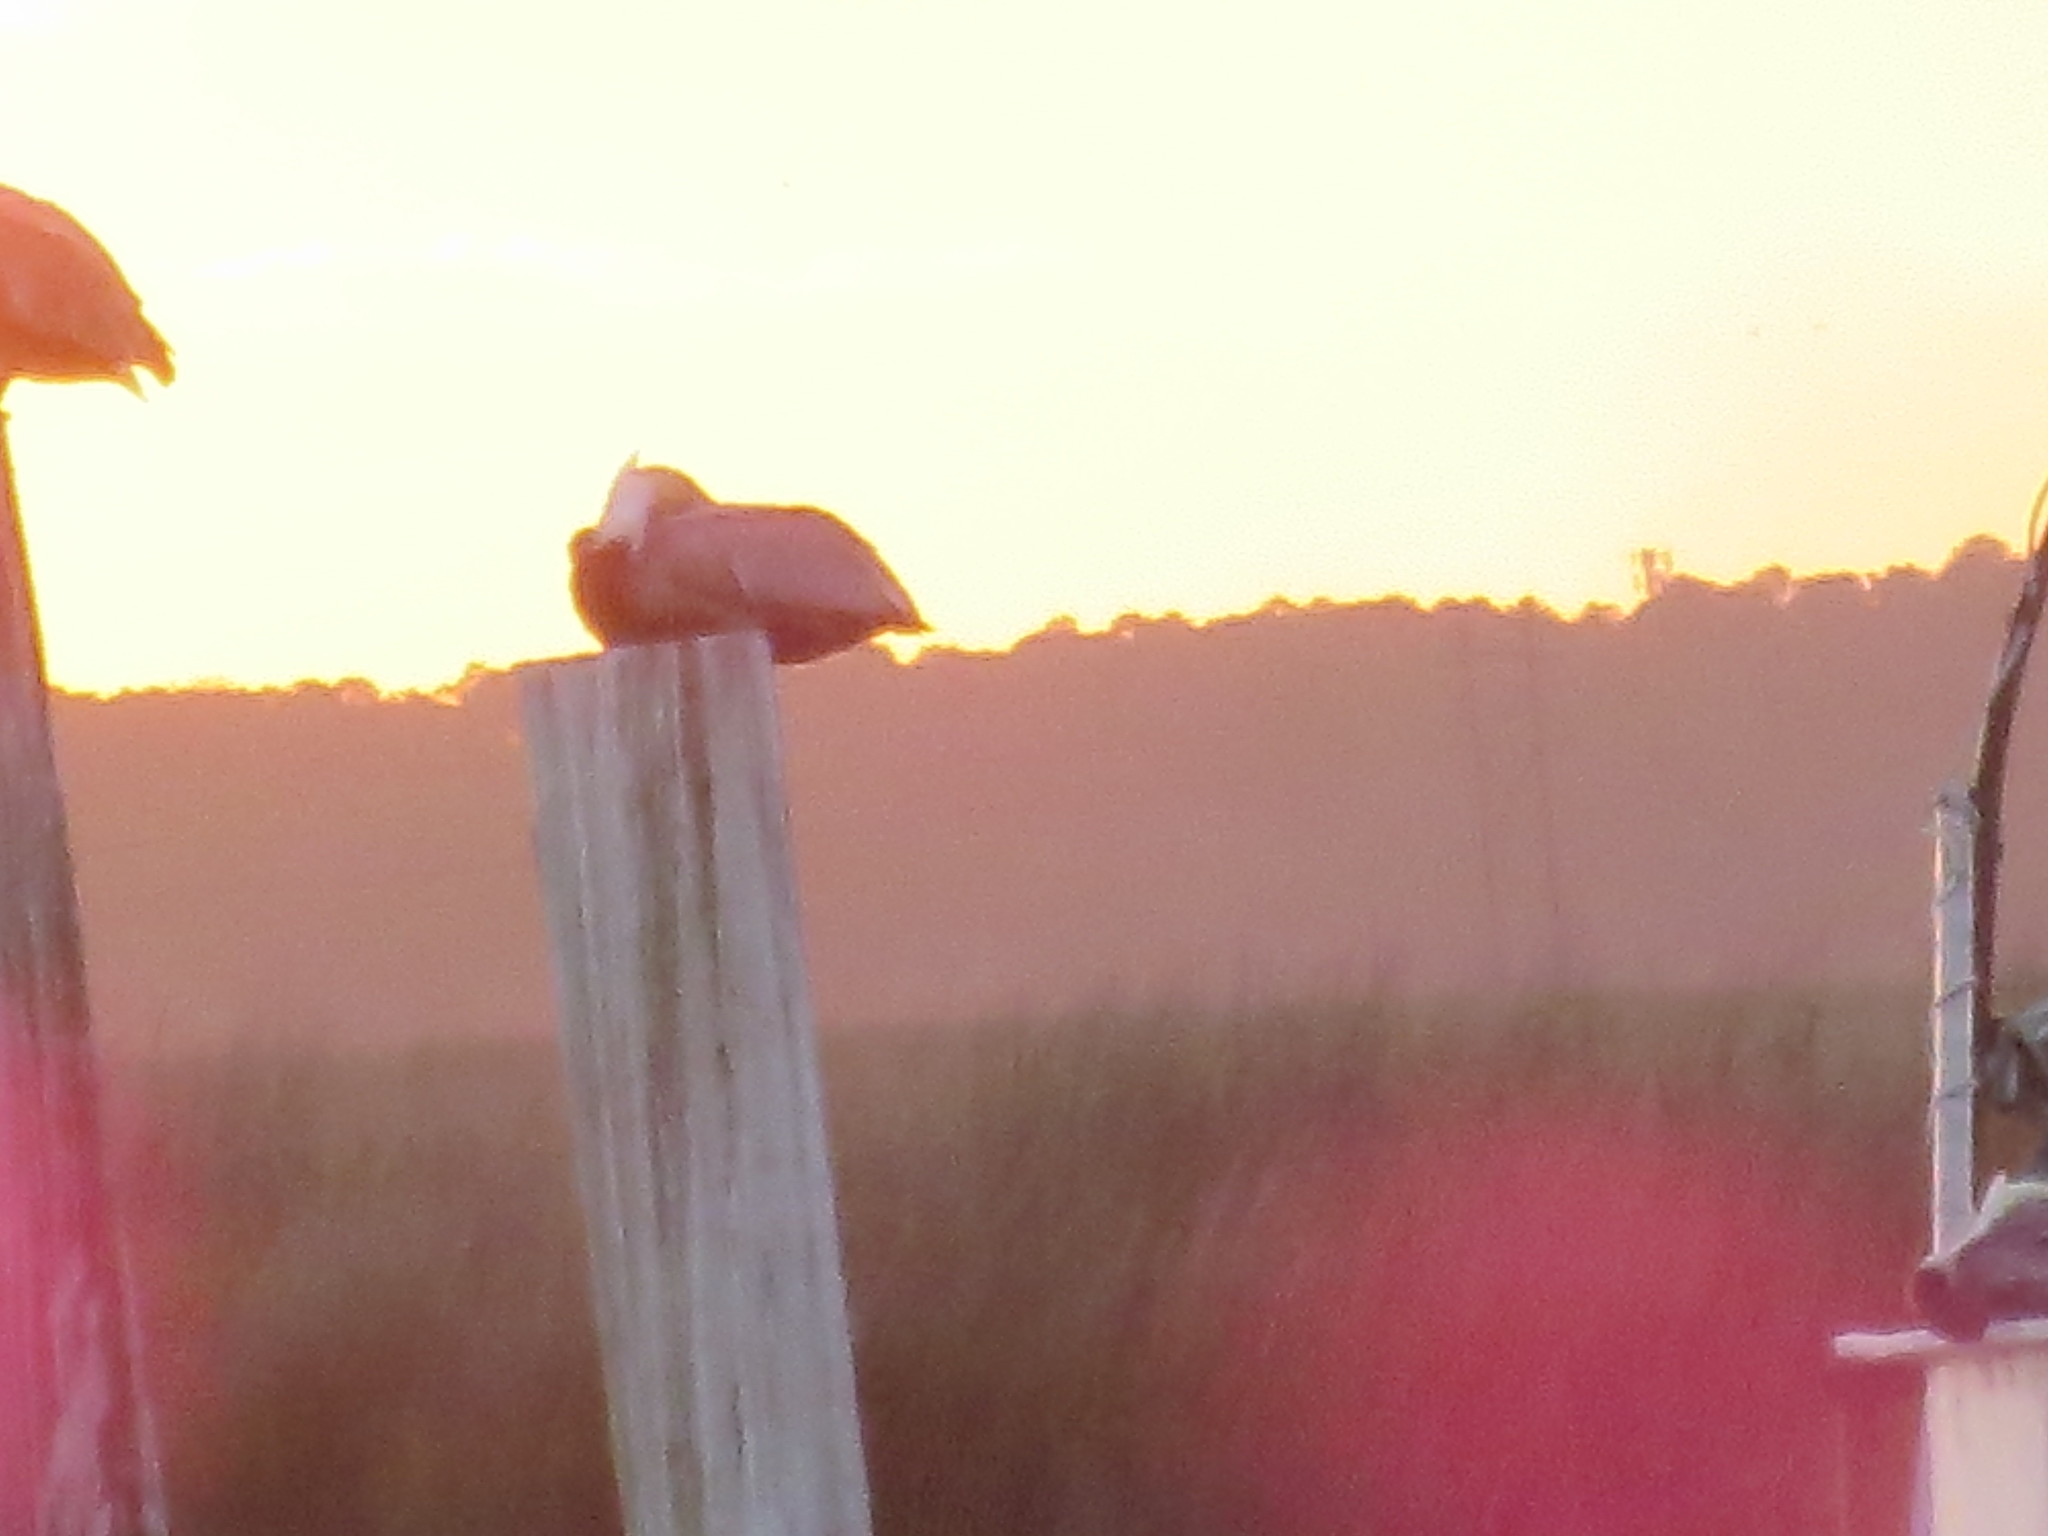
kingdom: Animalia
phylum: Chordata
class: Aves
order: Pelecaniformes
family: Pelecanidae
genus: Pelecanus
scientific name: Pelecanus occidentalis
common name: Brown pelican
